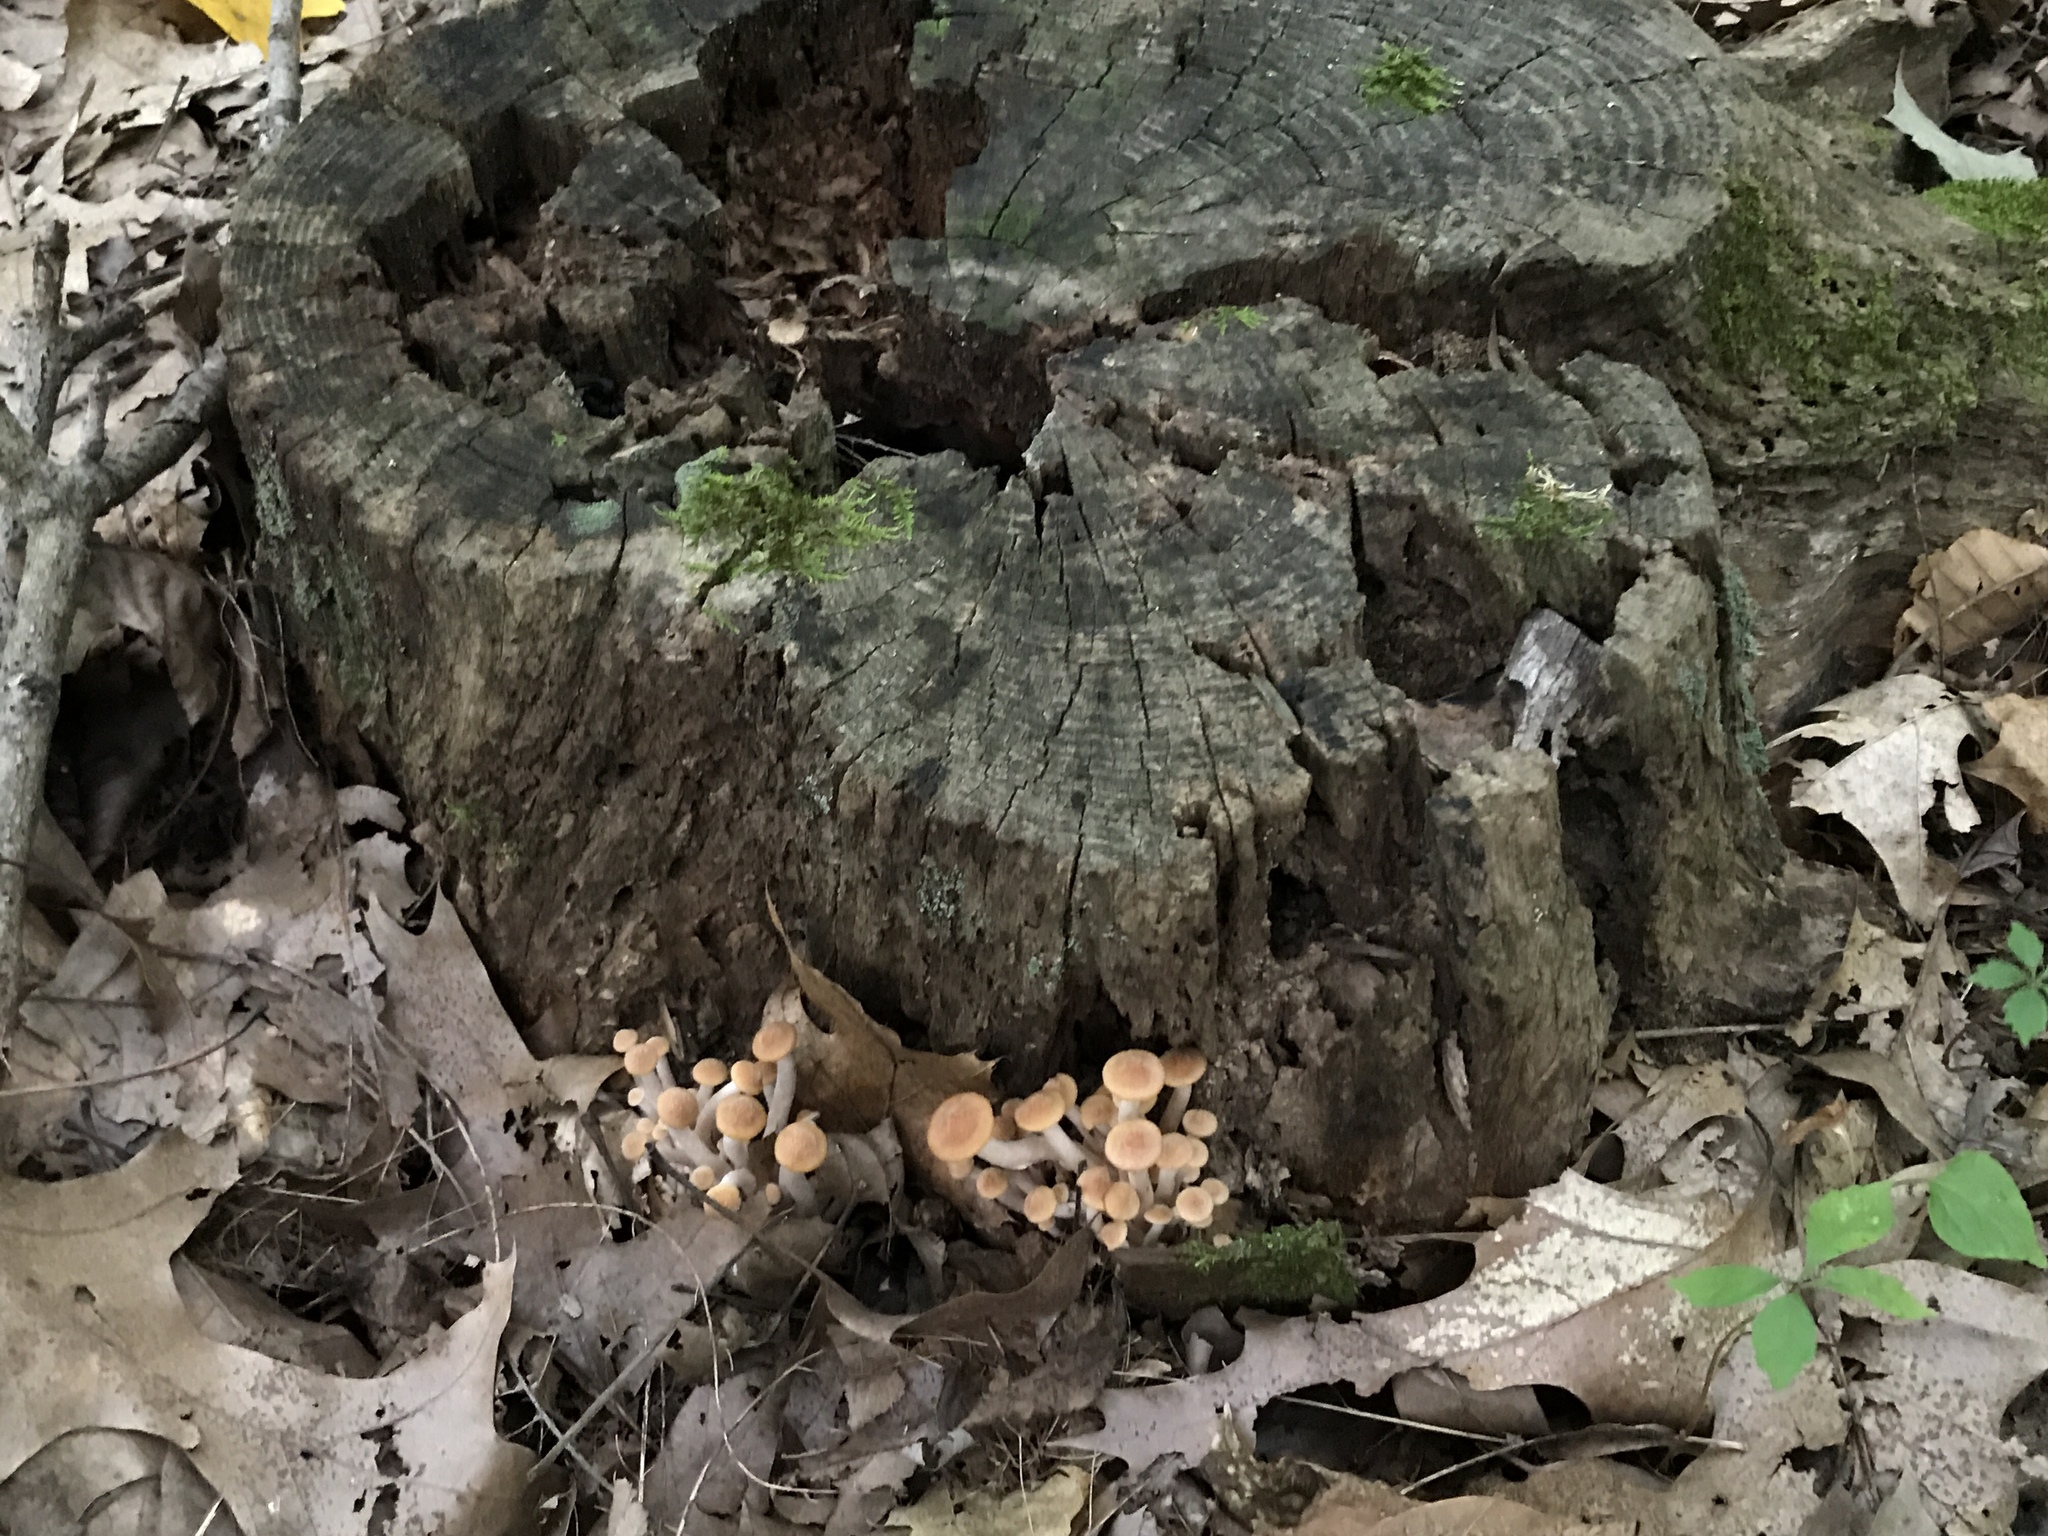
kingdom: Fungi
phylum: Basidiomycota
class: Agaricomycetes
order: Agaricales
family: Physalacriaceae
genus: Desarmillaria
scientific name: Desarmillaria caespitosa
